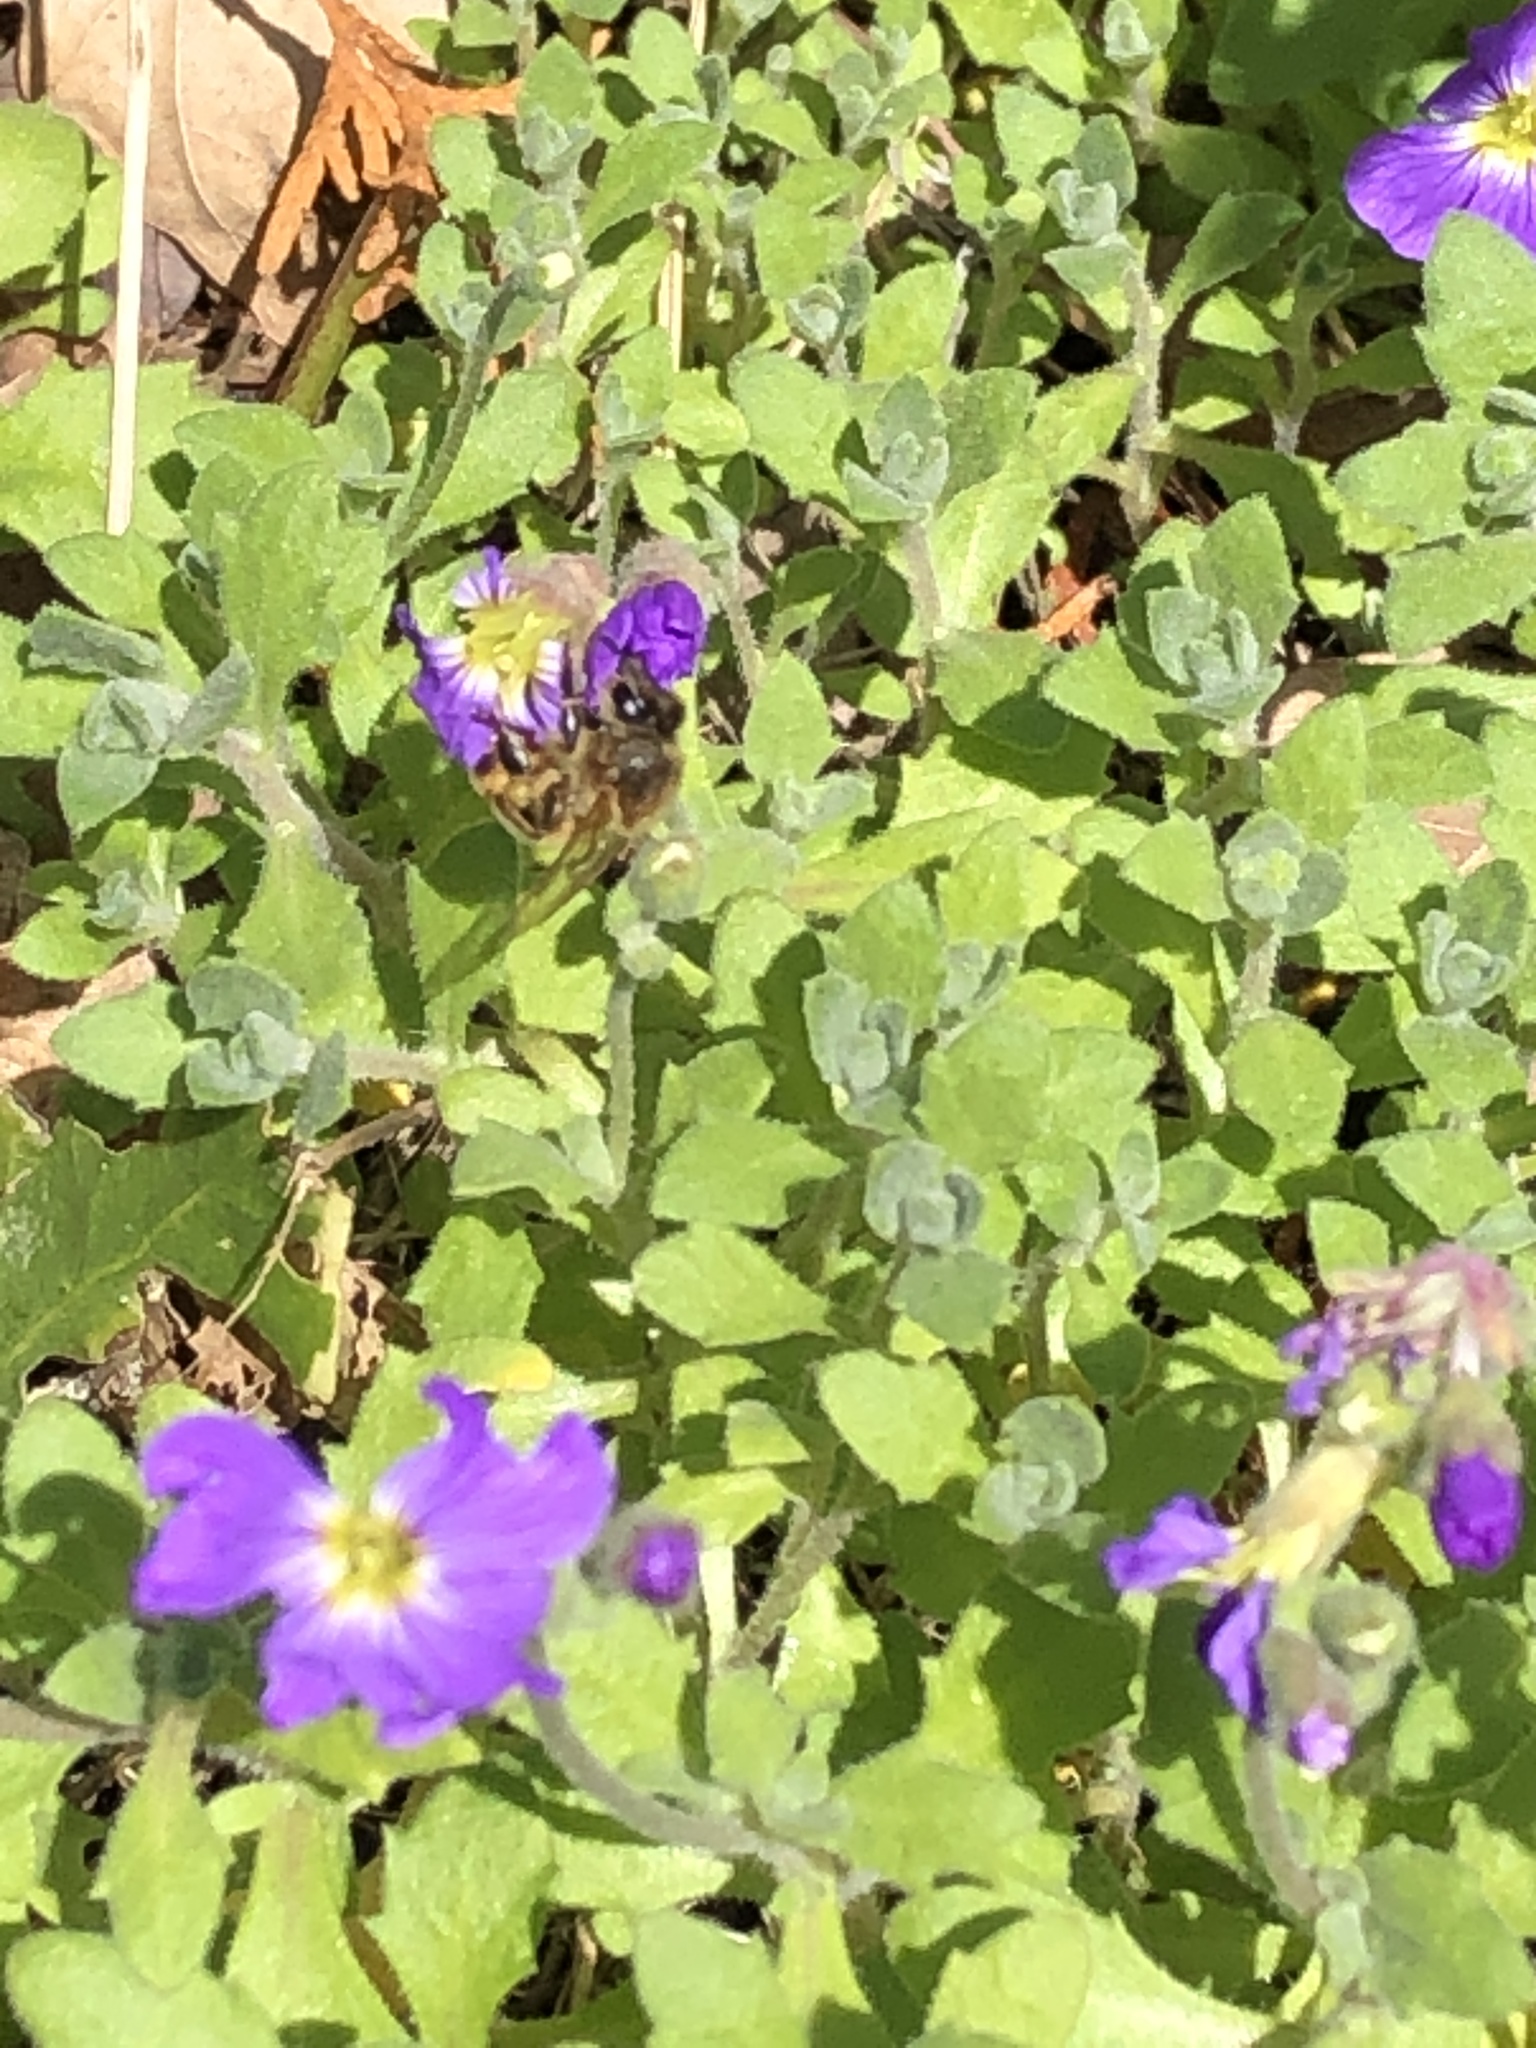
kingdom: Animalia
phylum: Arthropoda
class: Insecta
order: Hymenoptera
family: Apidae
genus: Apis
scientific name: Apis mellifera
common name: Honey bee
